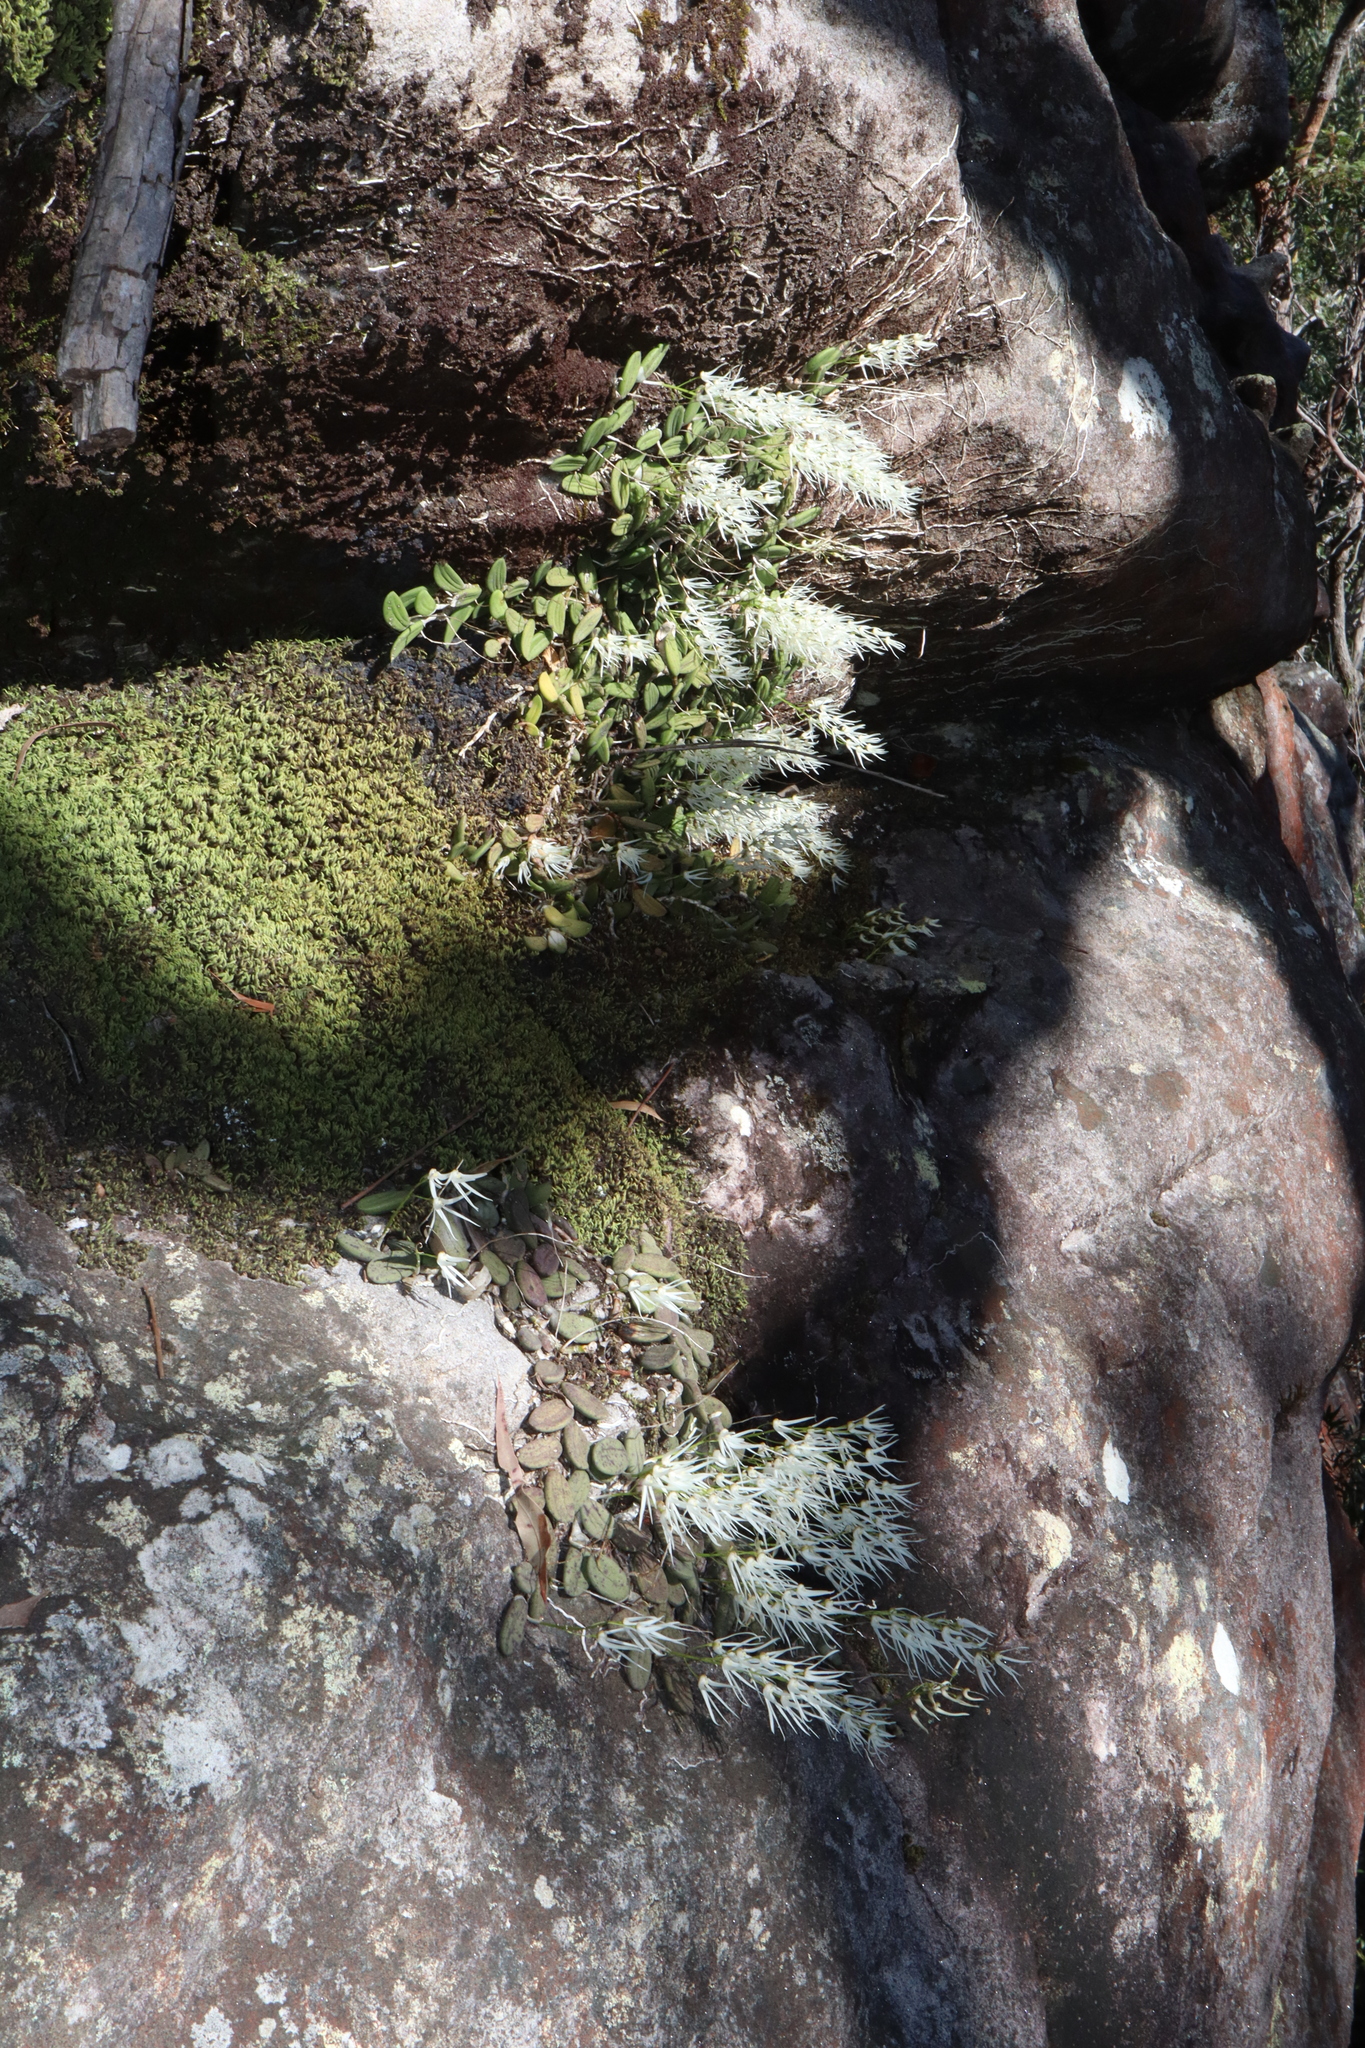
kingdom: Plantae
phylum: Tracheophyta
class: Liliopsida
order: Asparagales
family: Orchidaceae
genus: Dendrobium
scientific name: Dendrobium linguiforme
